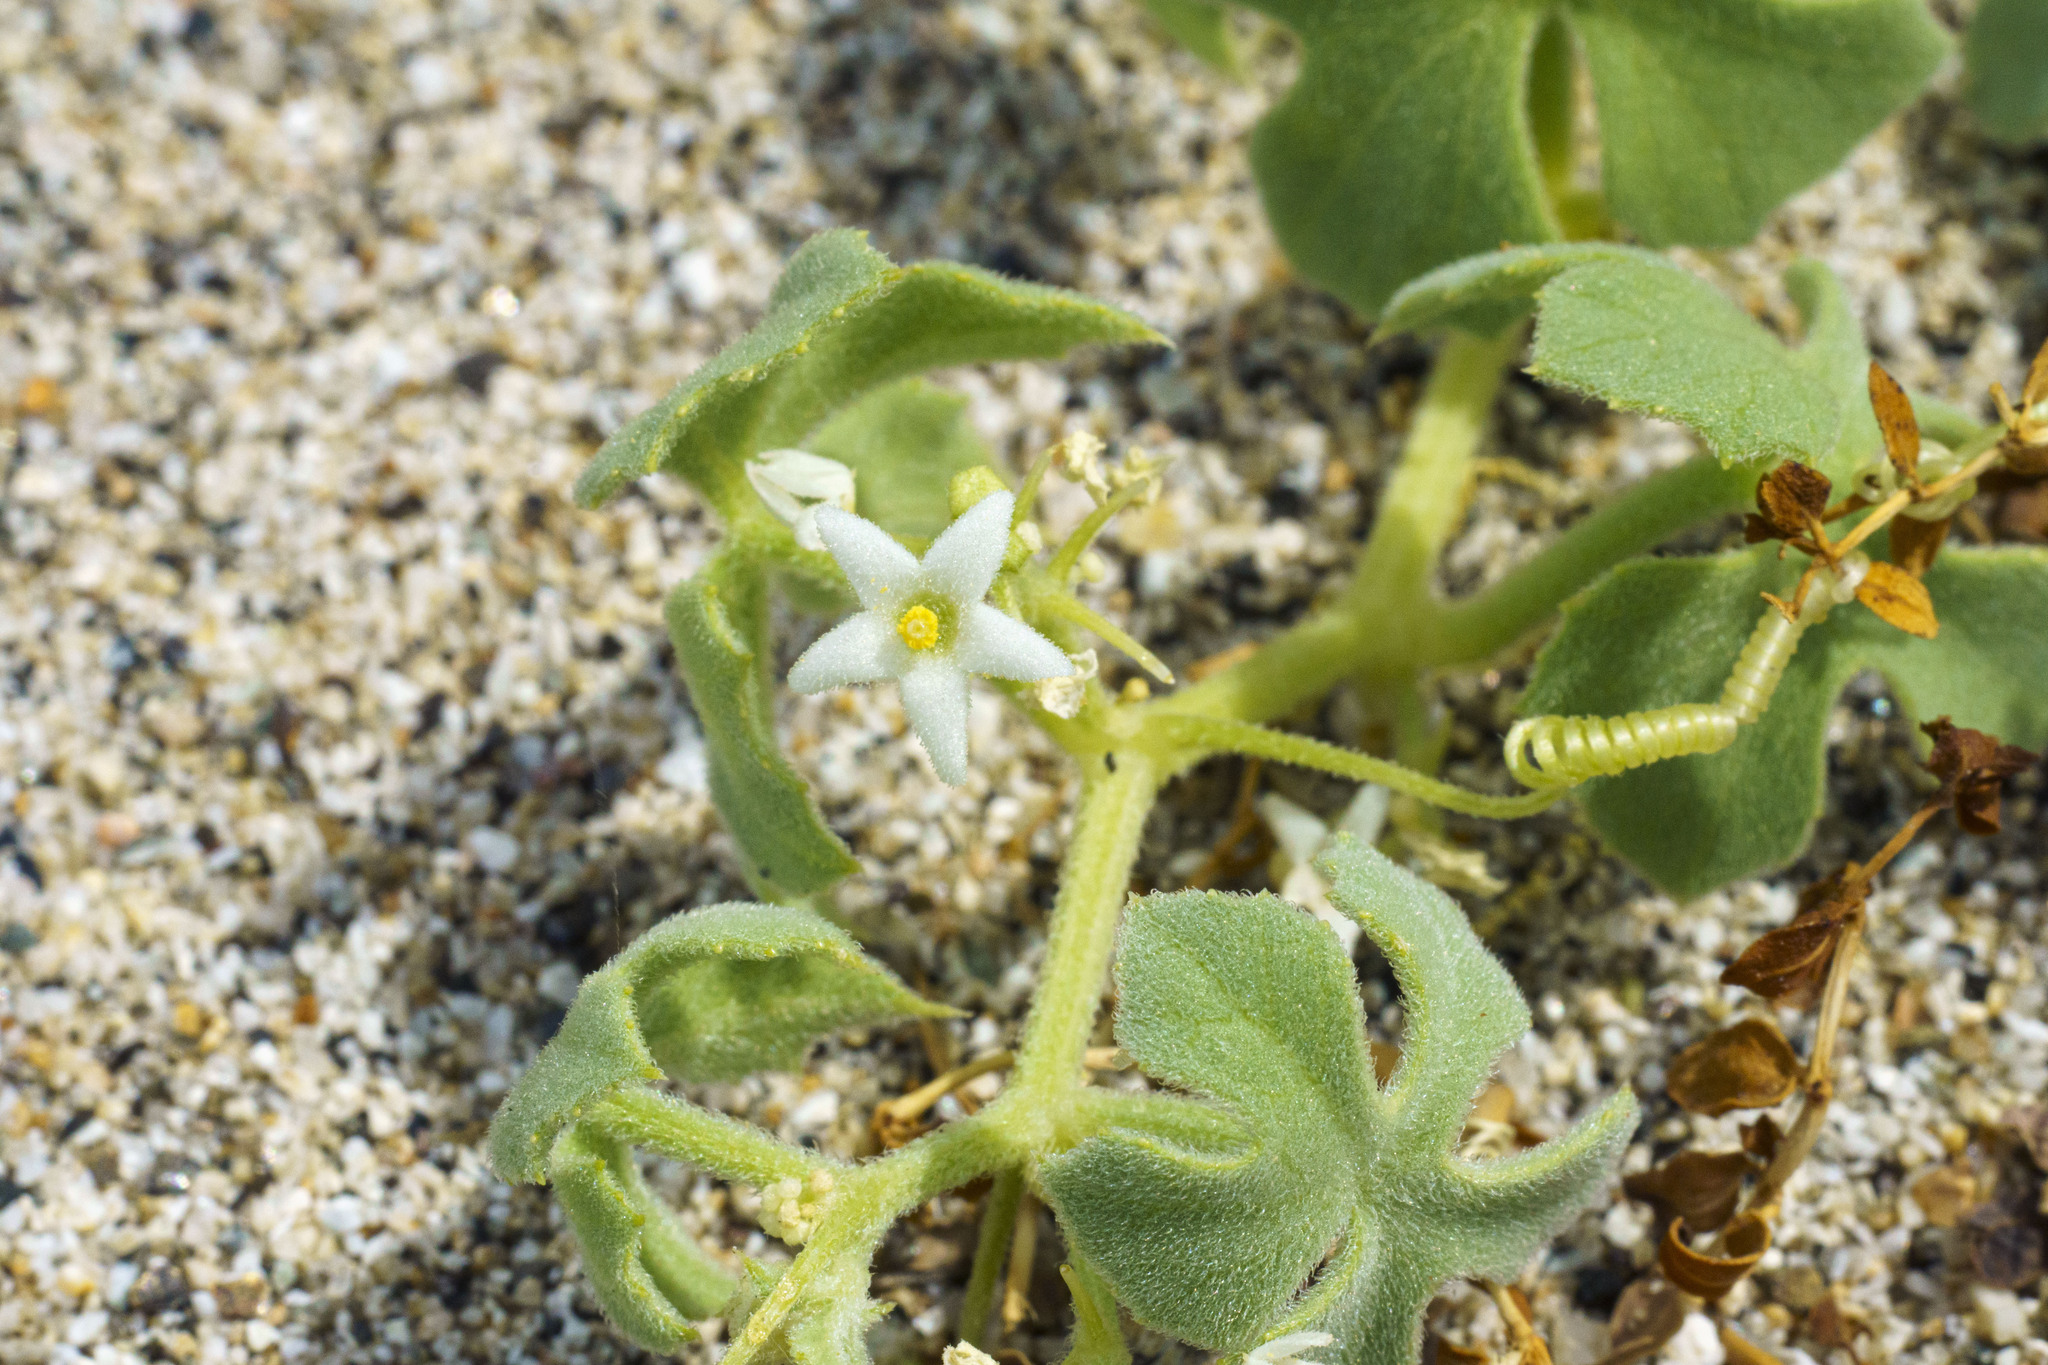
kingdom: Plantae
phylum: Tracheophyta
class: Magnoliopsida
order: Cucurbitales
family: Cucurbitaceae
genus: Echinopepon
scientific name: Echinopepon bigelovii
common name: Desert starvine
